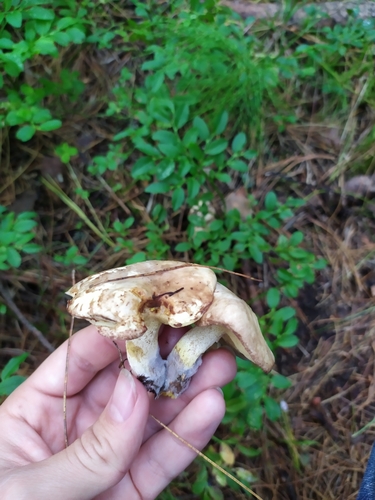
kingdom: Fungi
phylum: Basidiomycota
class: Agaricomycetes
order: Boletales
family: Suillaceae
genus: Suillus
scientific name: Suillus placidus
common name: Slippery white bolete
